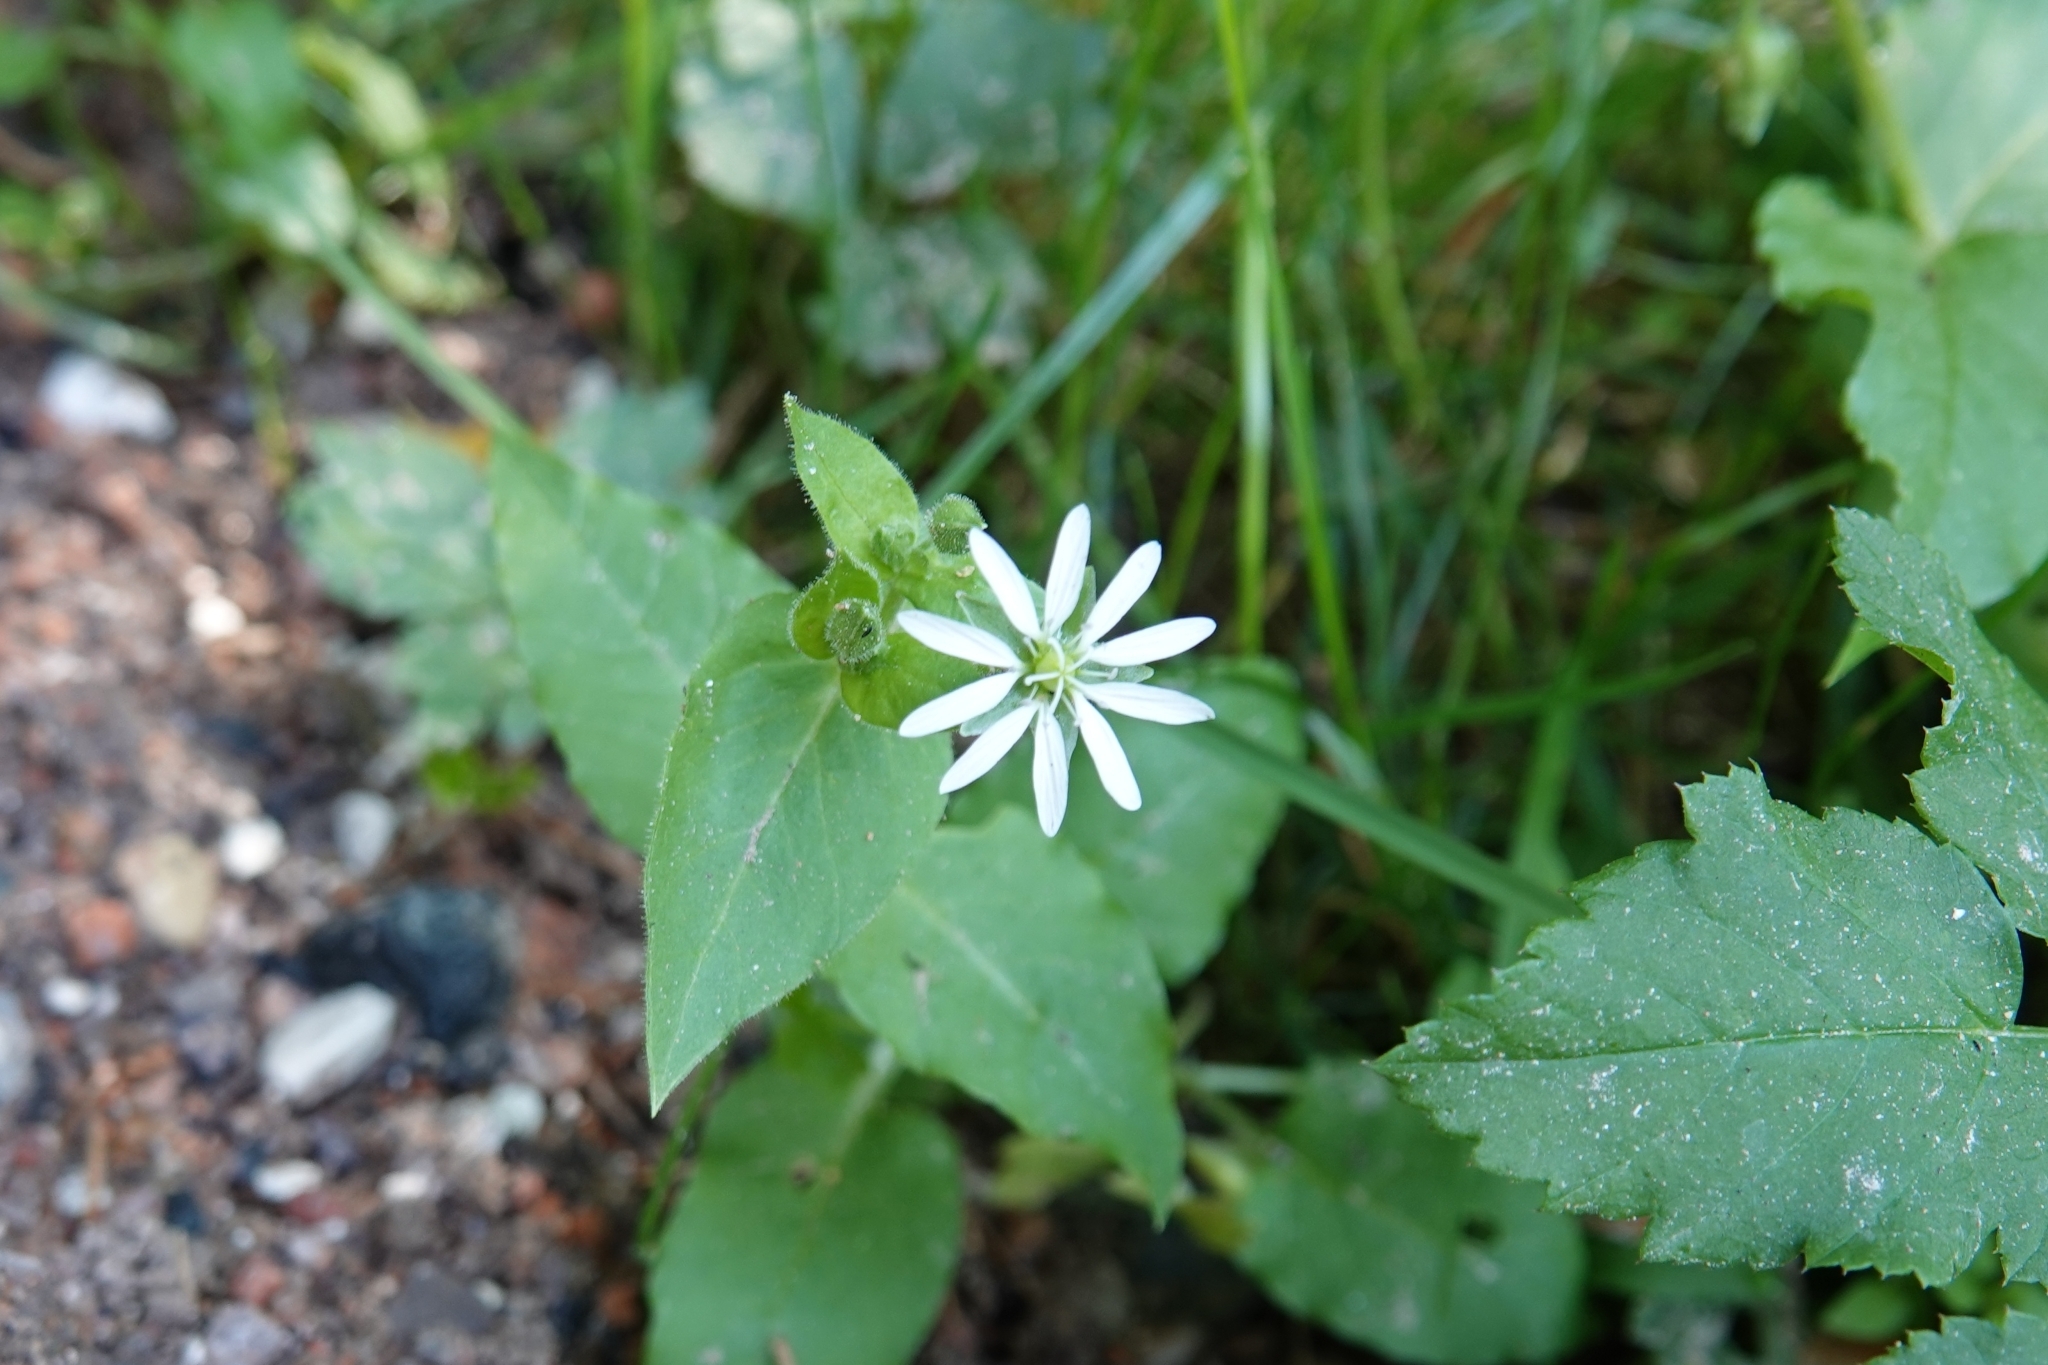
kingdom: Plantae
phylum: Tracheophyta
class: Magnoliopsida
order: Caryophyllales
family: Caryophyllaceae
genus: Stellaria
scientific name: Stellaria aquatica
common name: Water chickweed
